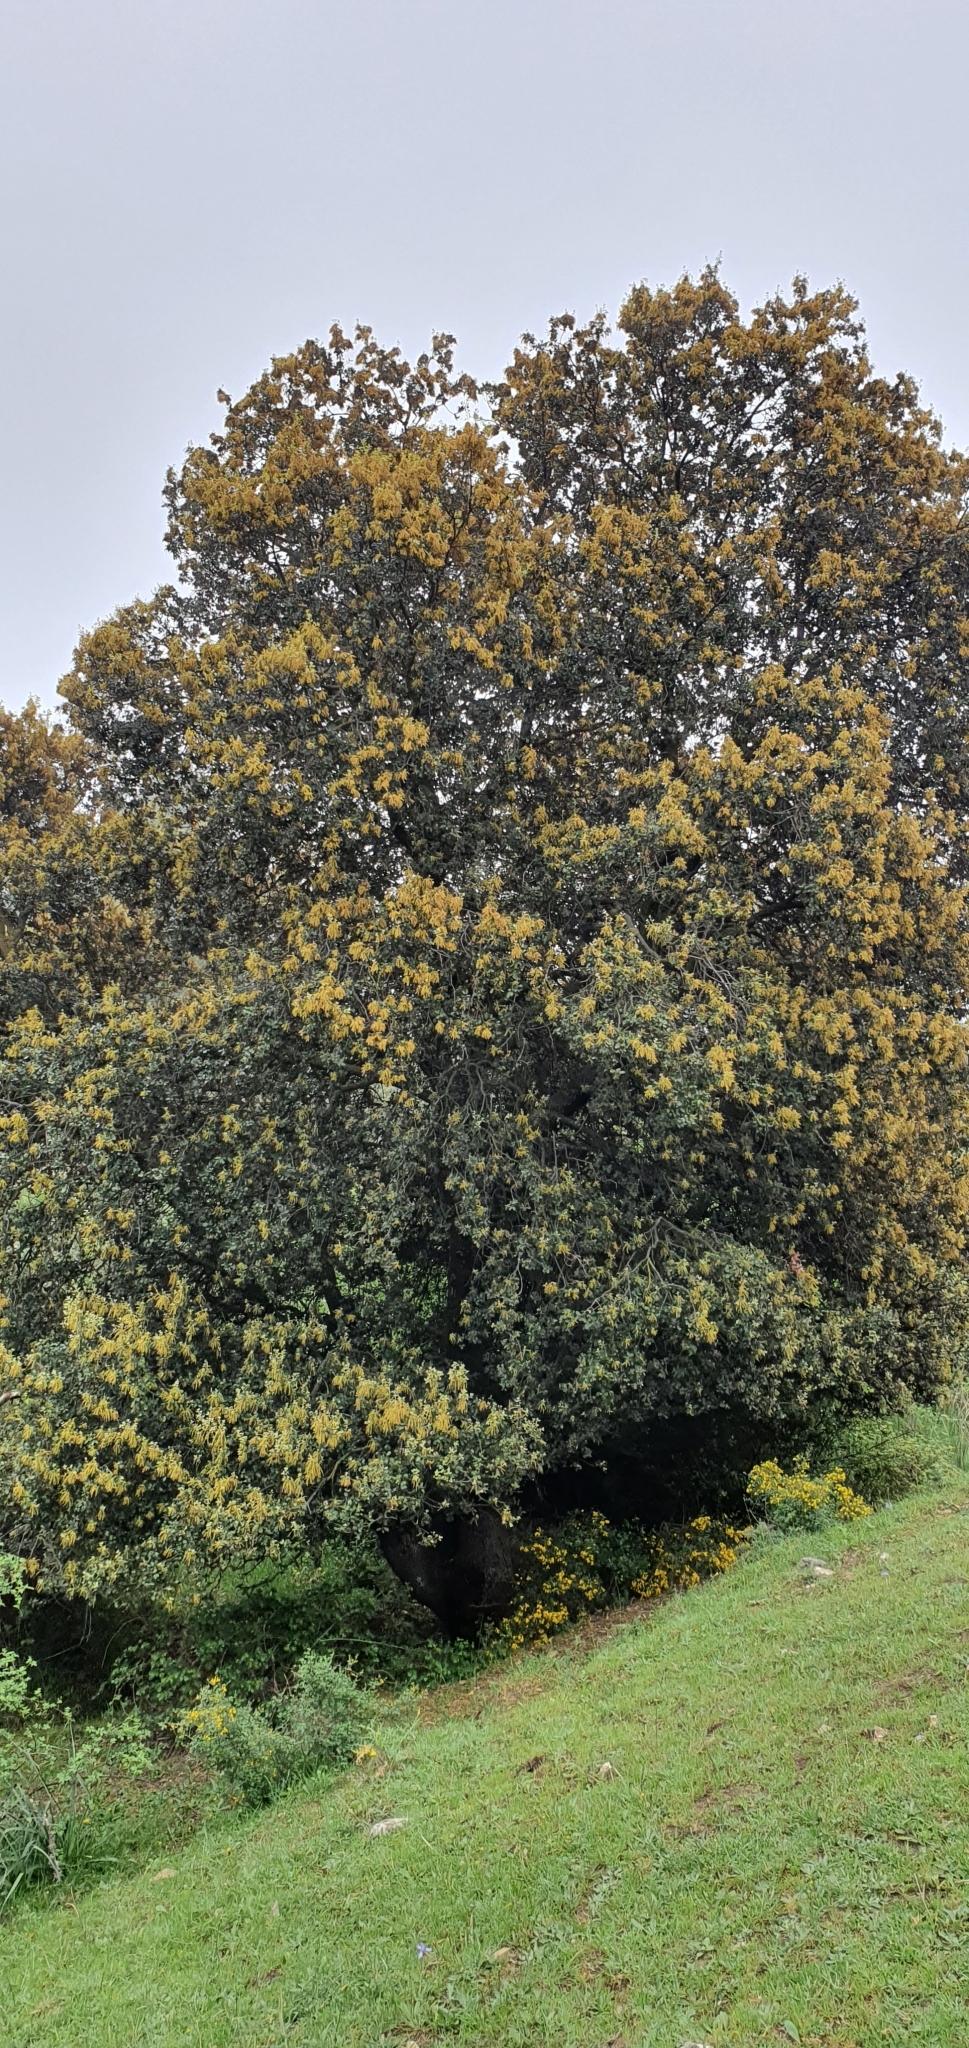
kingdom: Plantae
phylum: Tracheophyta
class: Magnoliopsida
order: Fagales
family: Fagaceae
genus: Quercus
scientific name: Quercus rotundifolia
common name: Holm oak
